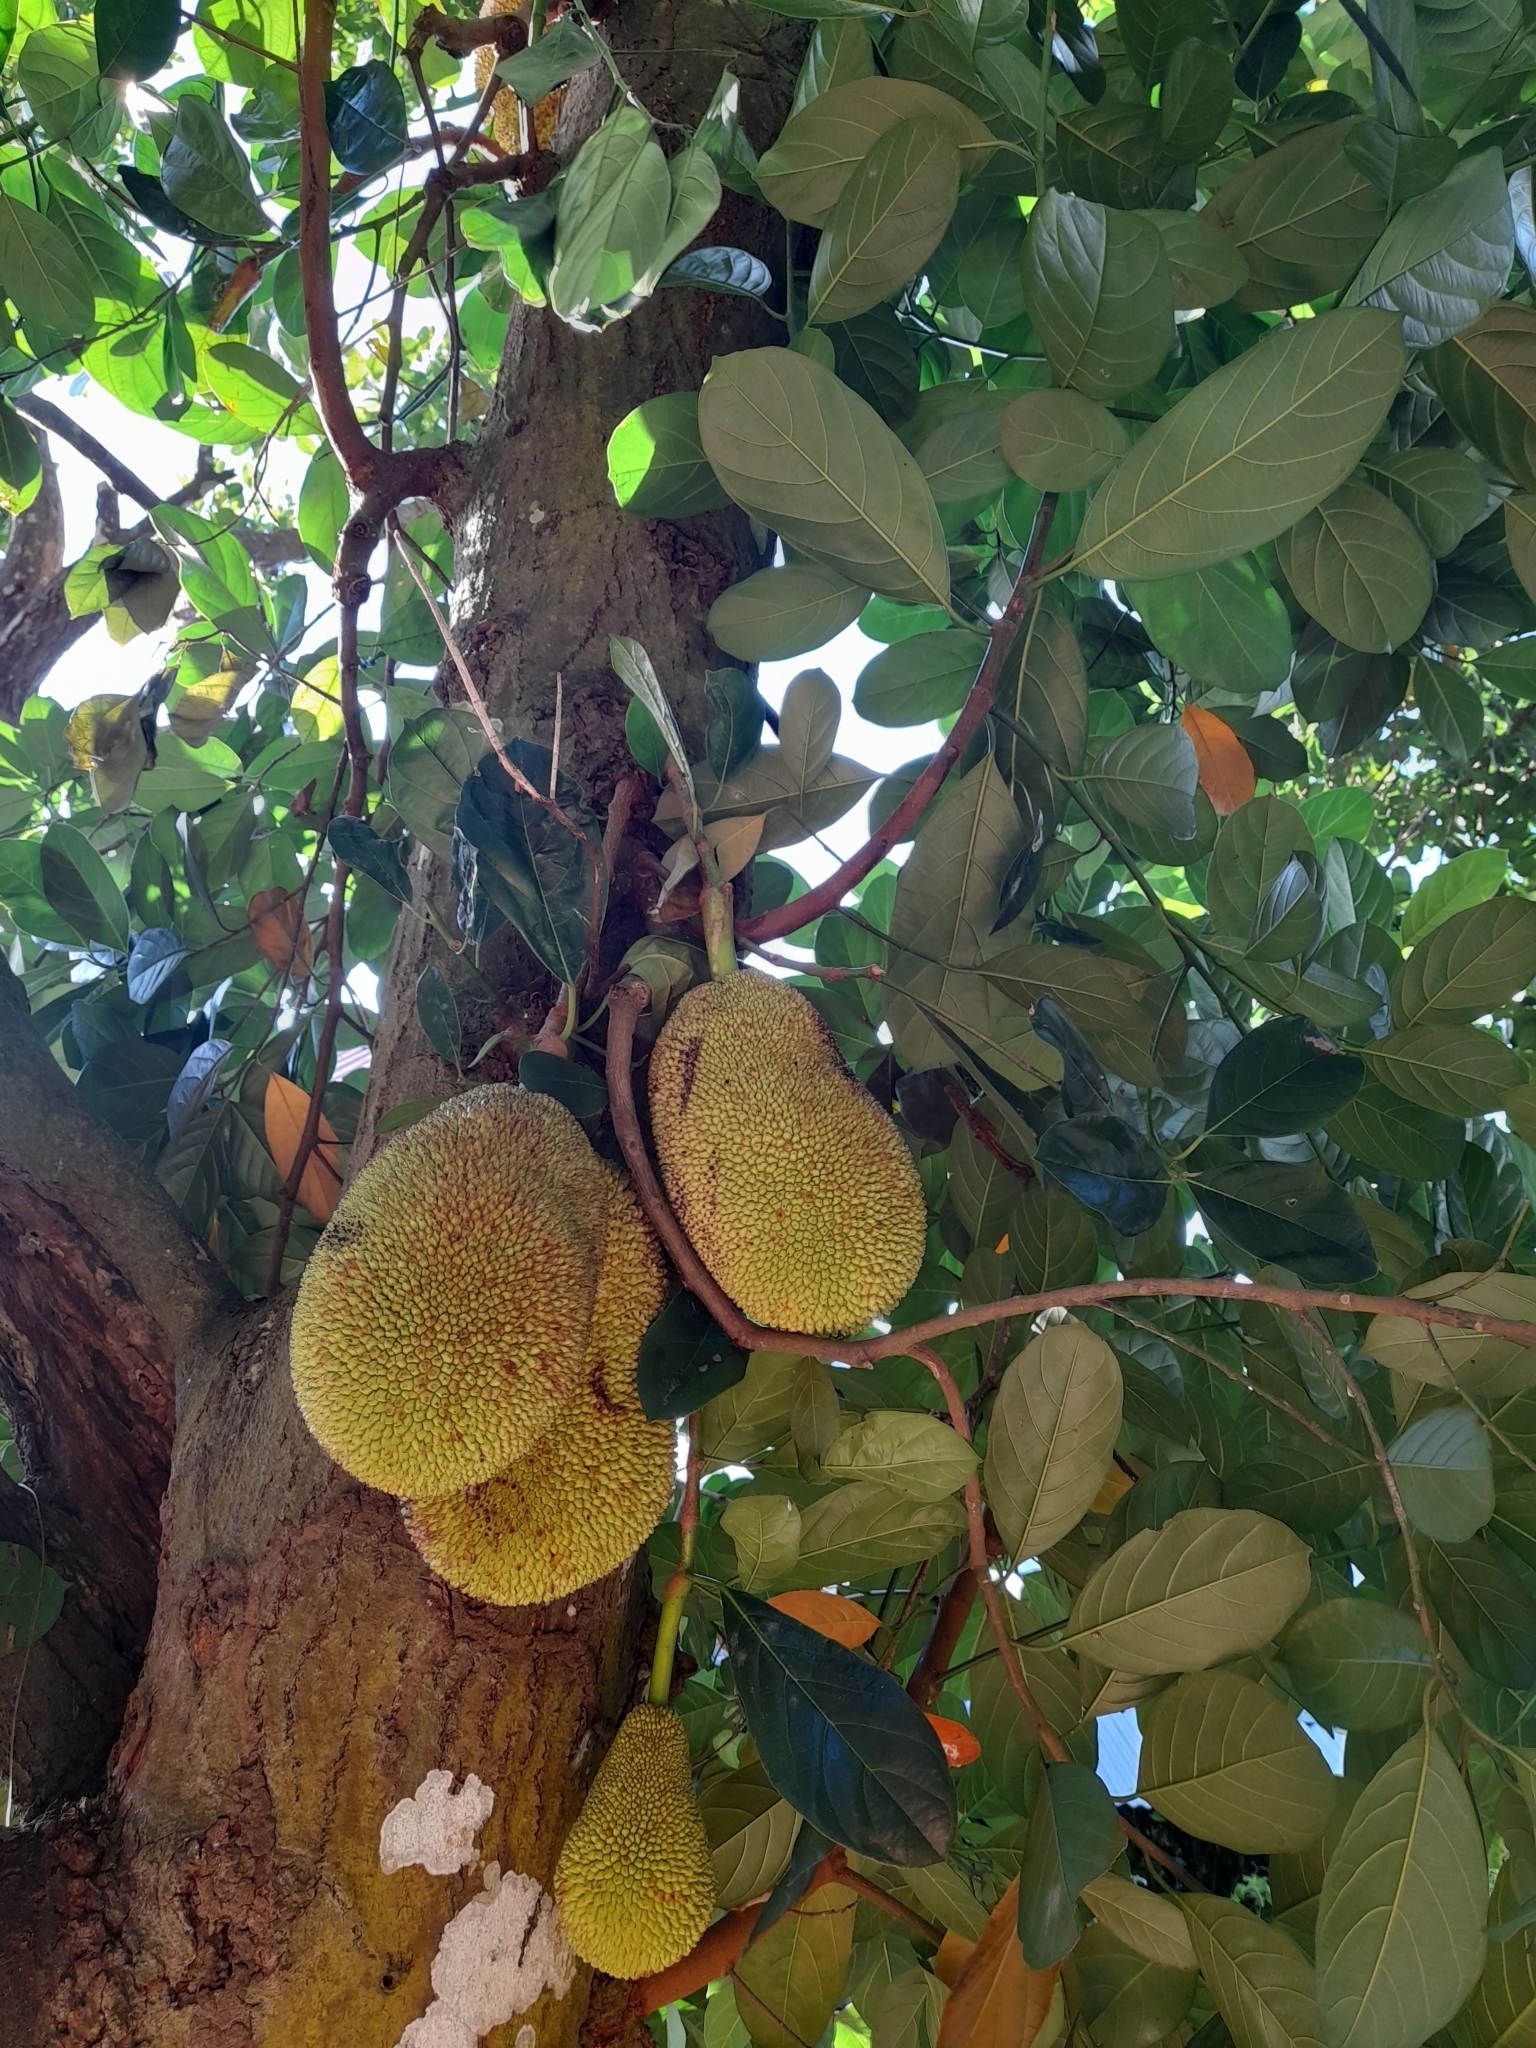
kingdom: Plantae
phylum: Tracheophyta
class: Magnoliopsida
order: Rosales
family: Moraceae
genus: Artocarpus
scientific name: Artocarpus heterophyllus
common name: Jackfruit
